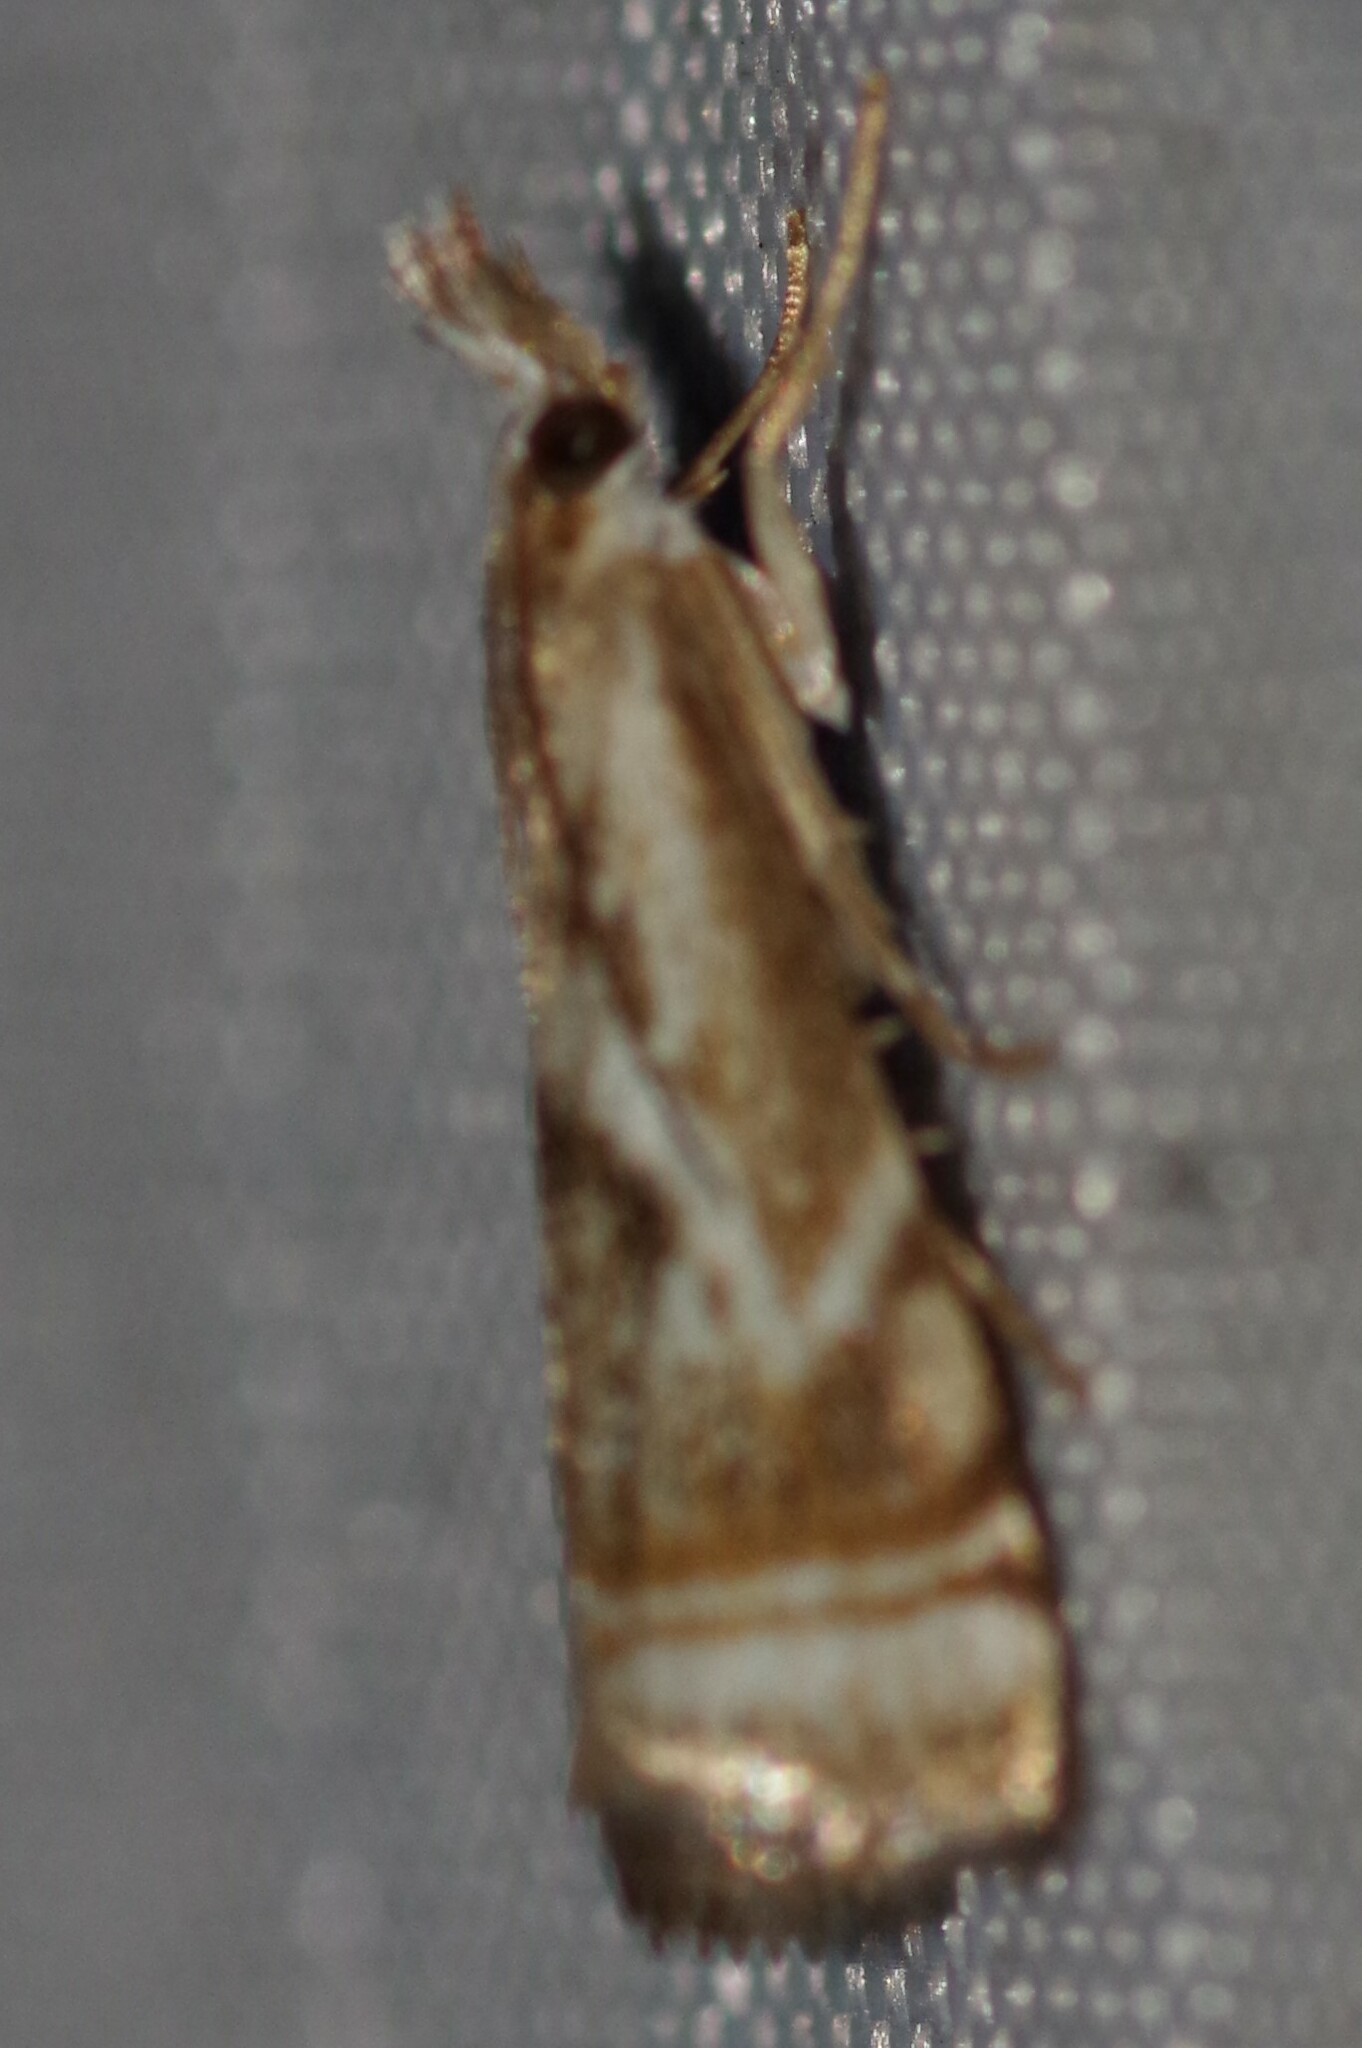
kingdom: Animalia
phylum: Arthropoda
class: Insecta
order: Lepidoptera
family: Crambidae
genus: Microcrambus
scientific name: Microcrambus elegans
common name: Elegant grass-veneer
